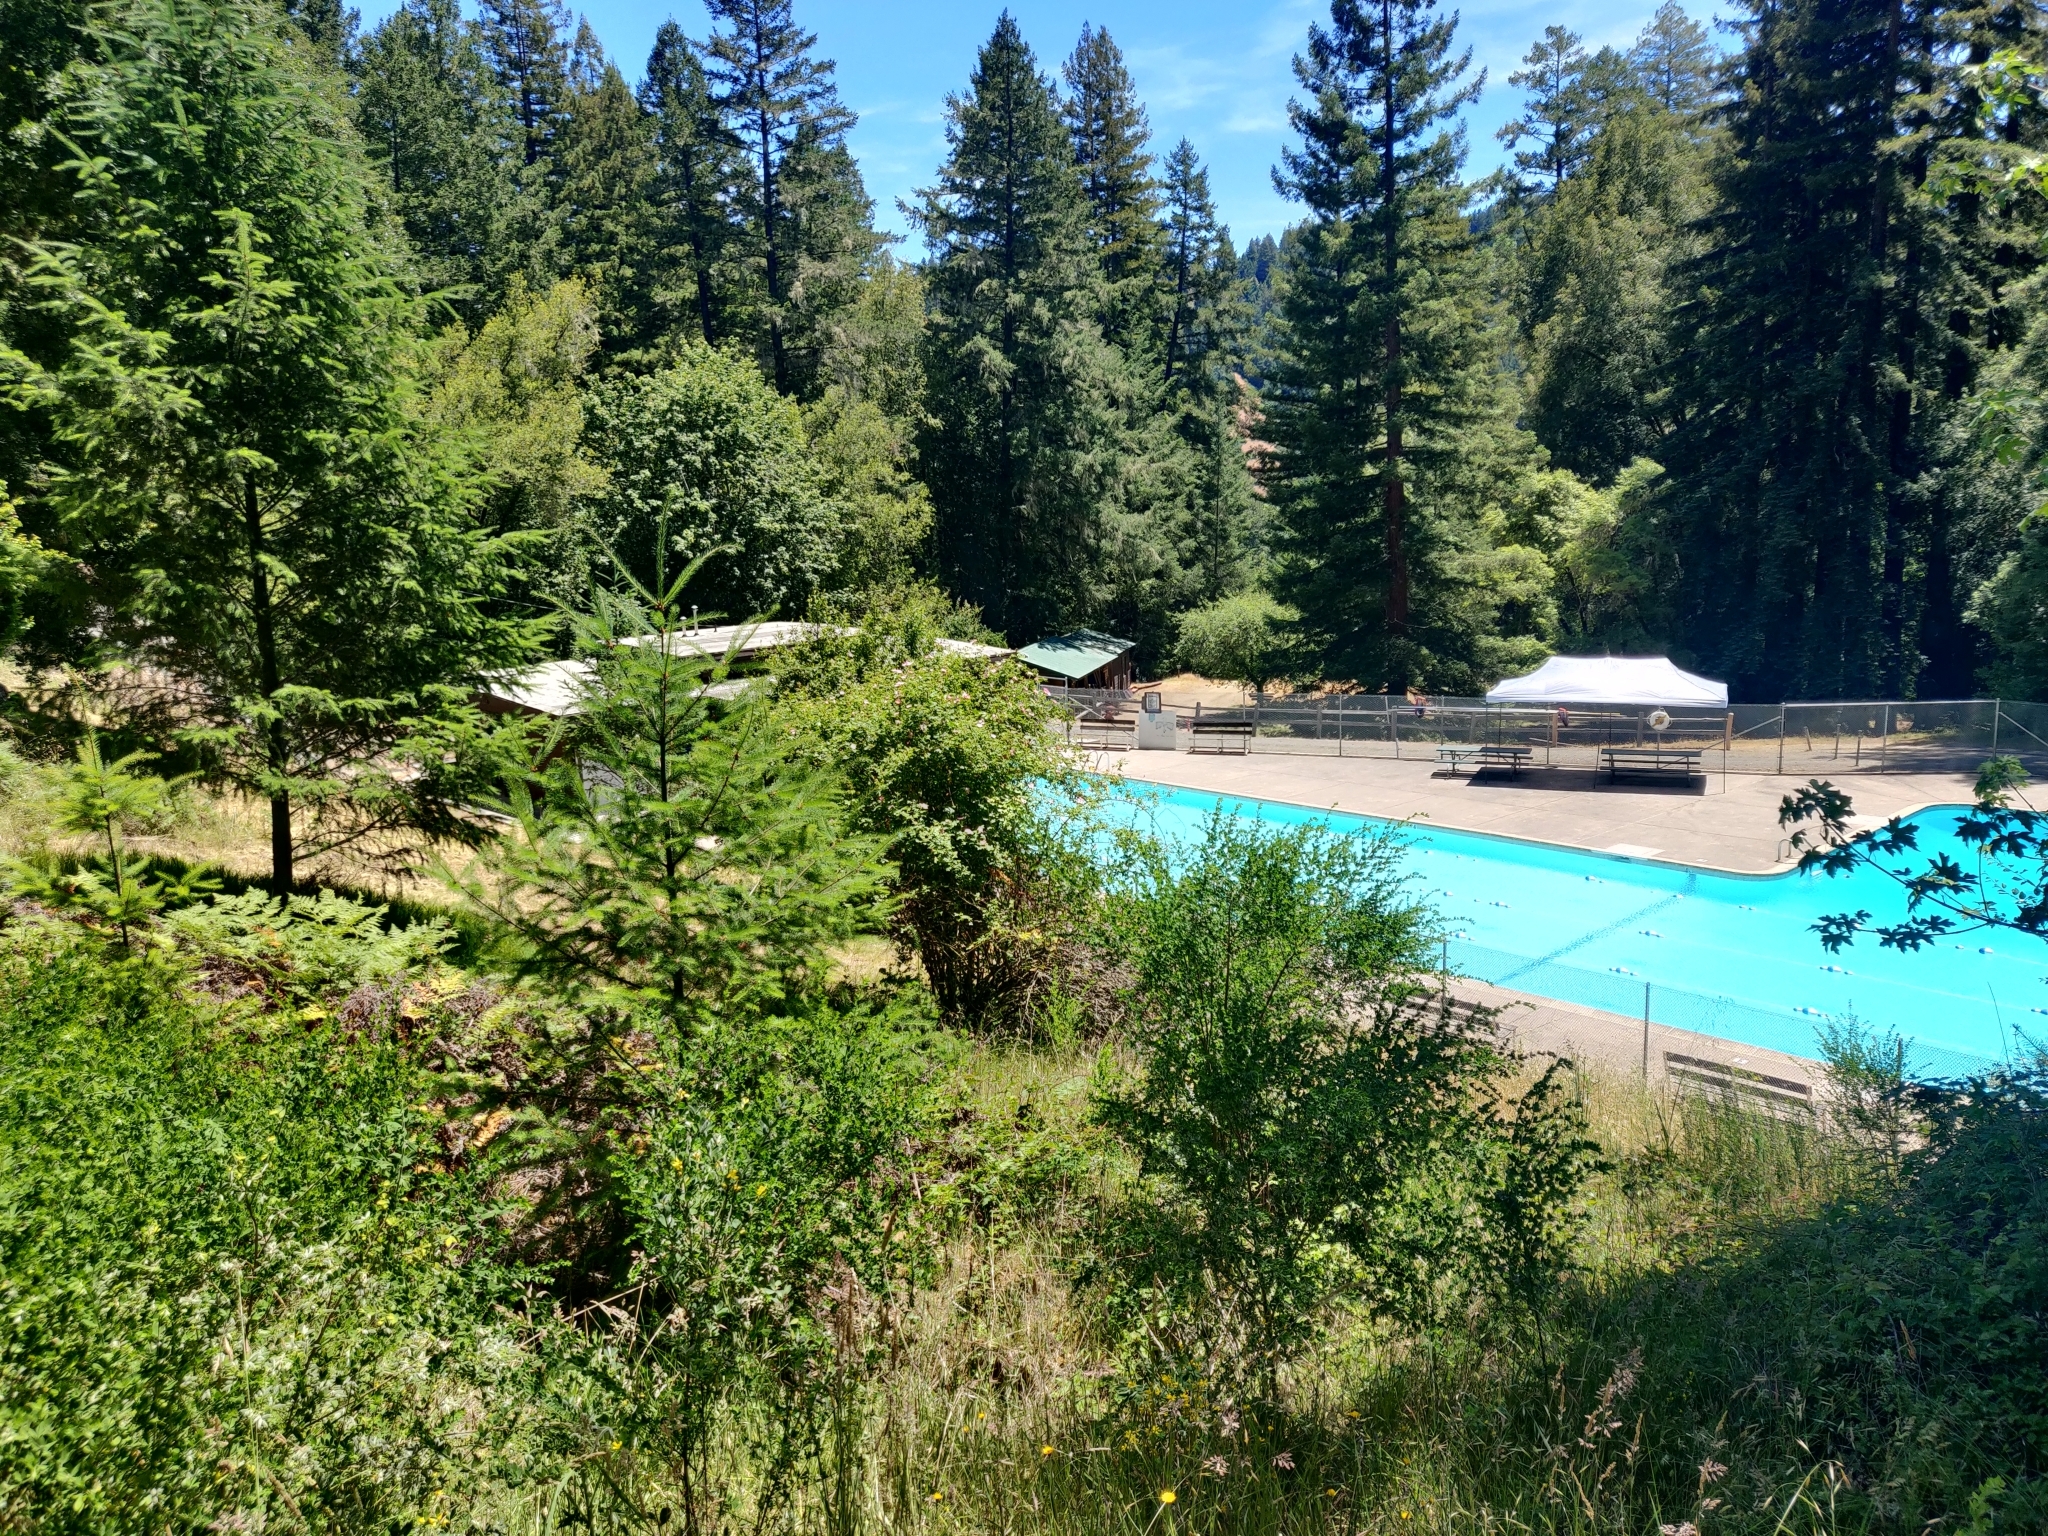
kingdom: Plantae
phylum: Tracheophyta
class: Magnoliopsida
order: Rosales
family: Rosaceae
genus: Rosa
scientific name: Rosa rubiginosa
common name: Sweet-briar
